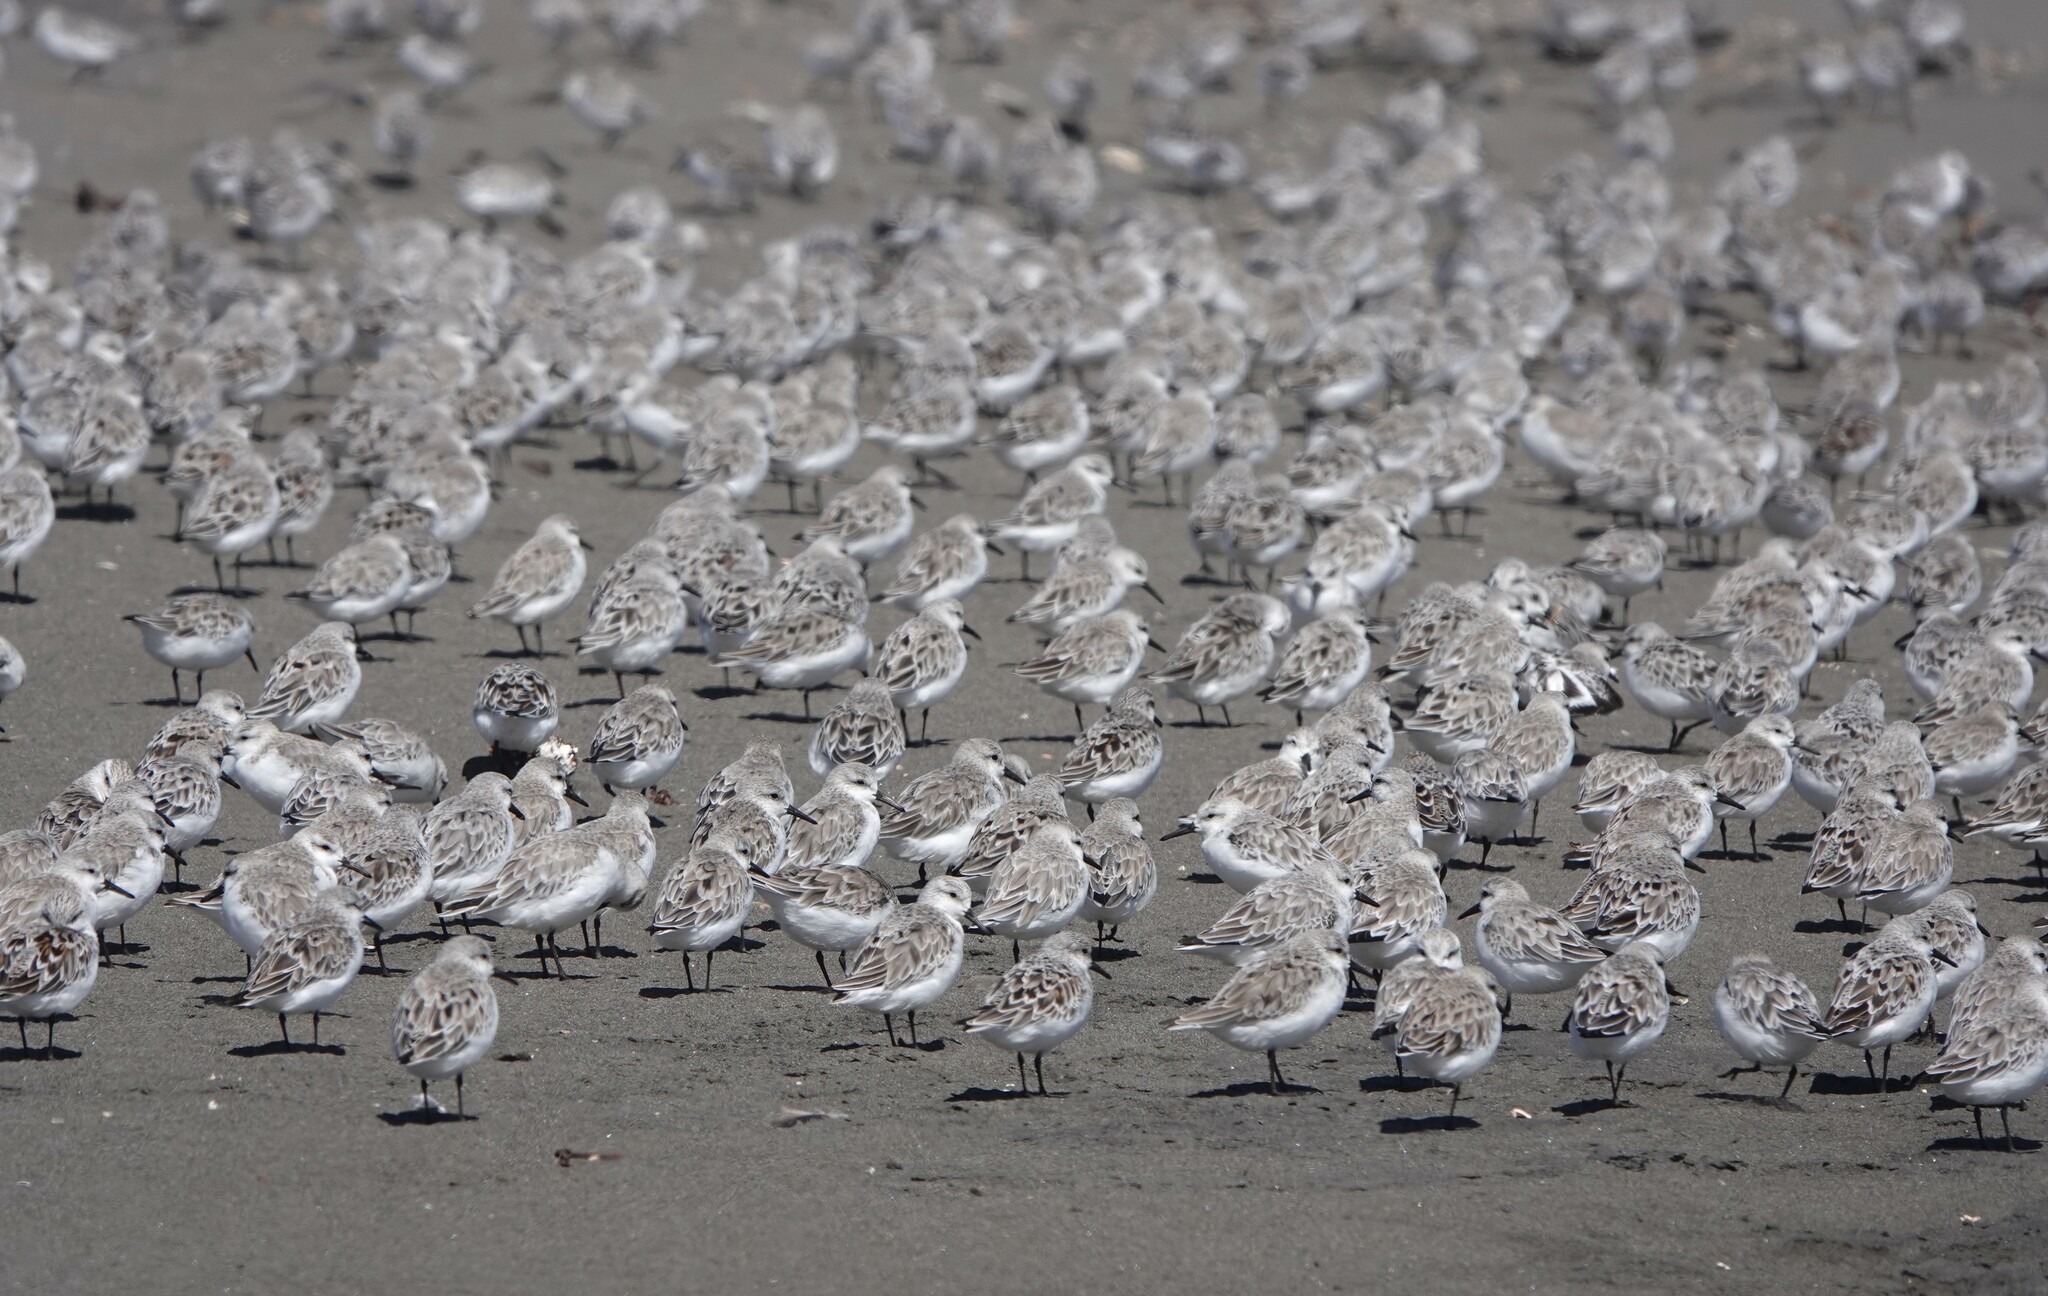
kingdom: Animalia
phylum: Chordata
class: Aves
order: Charadriiformes
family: Scolopacidae
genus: Calidris
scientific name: Calidris alba
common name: Sanderling
